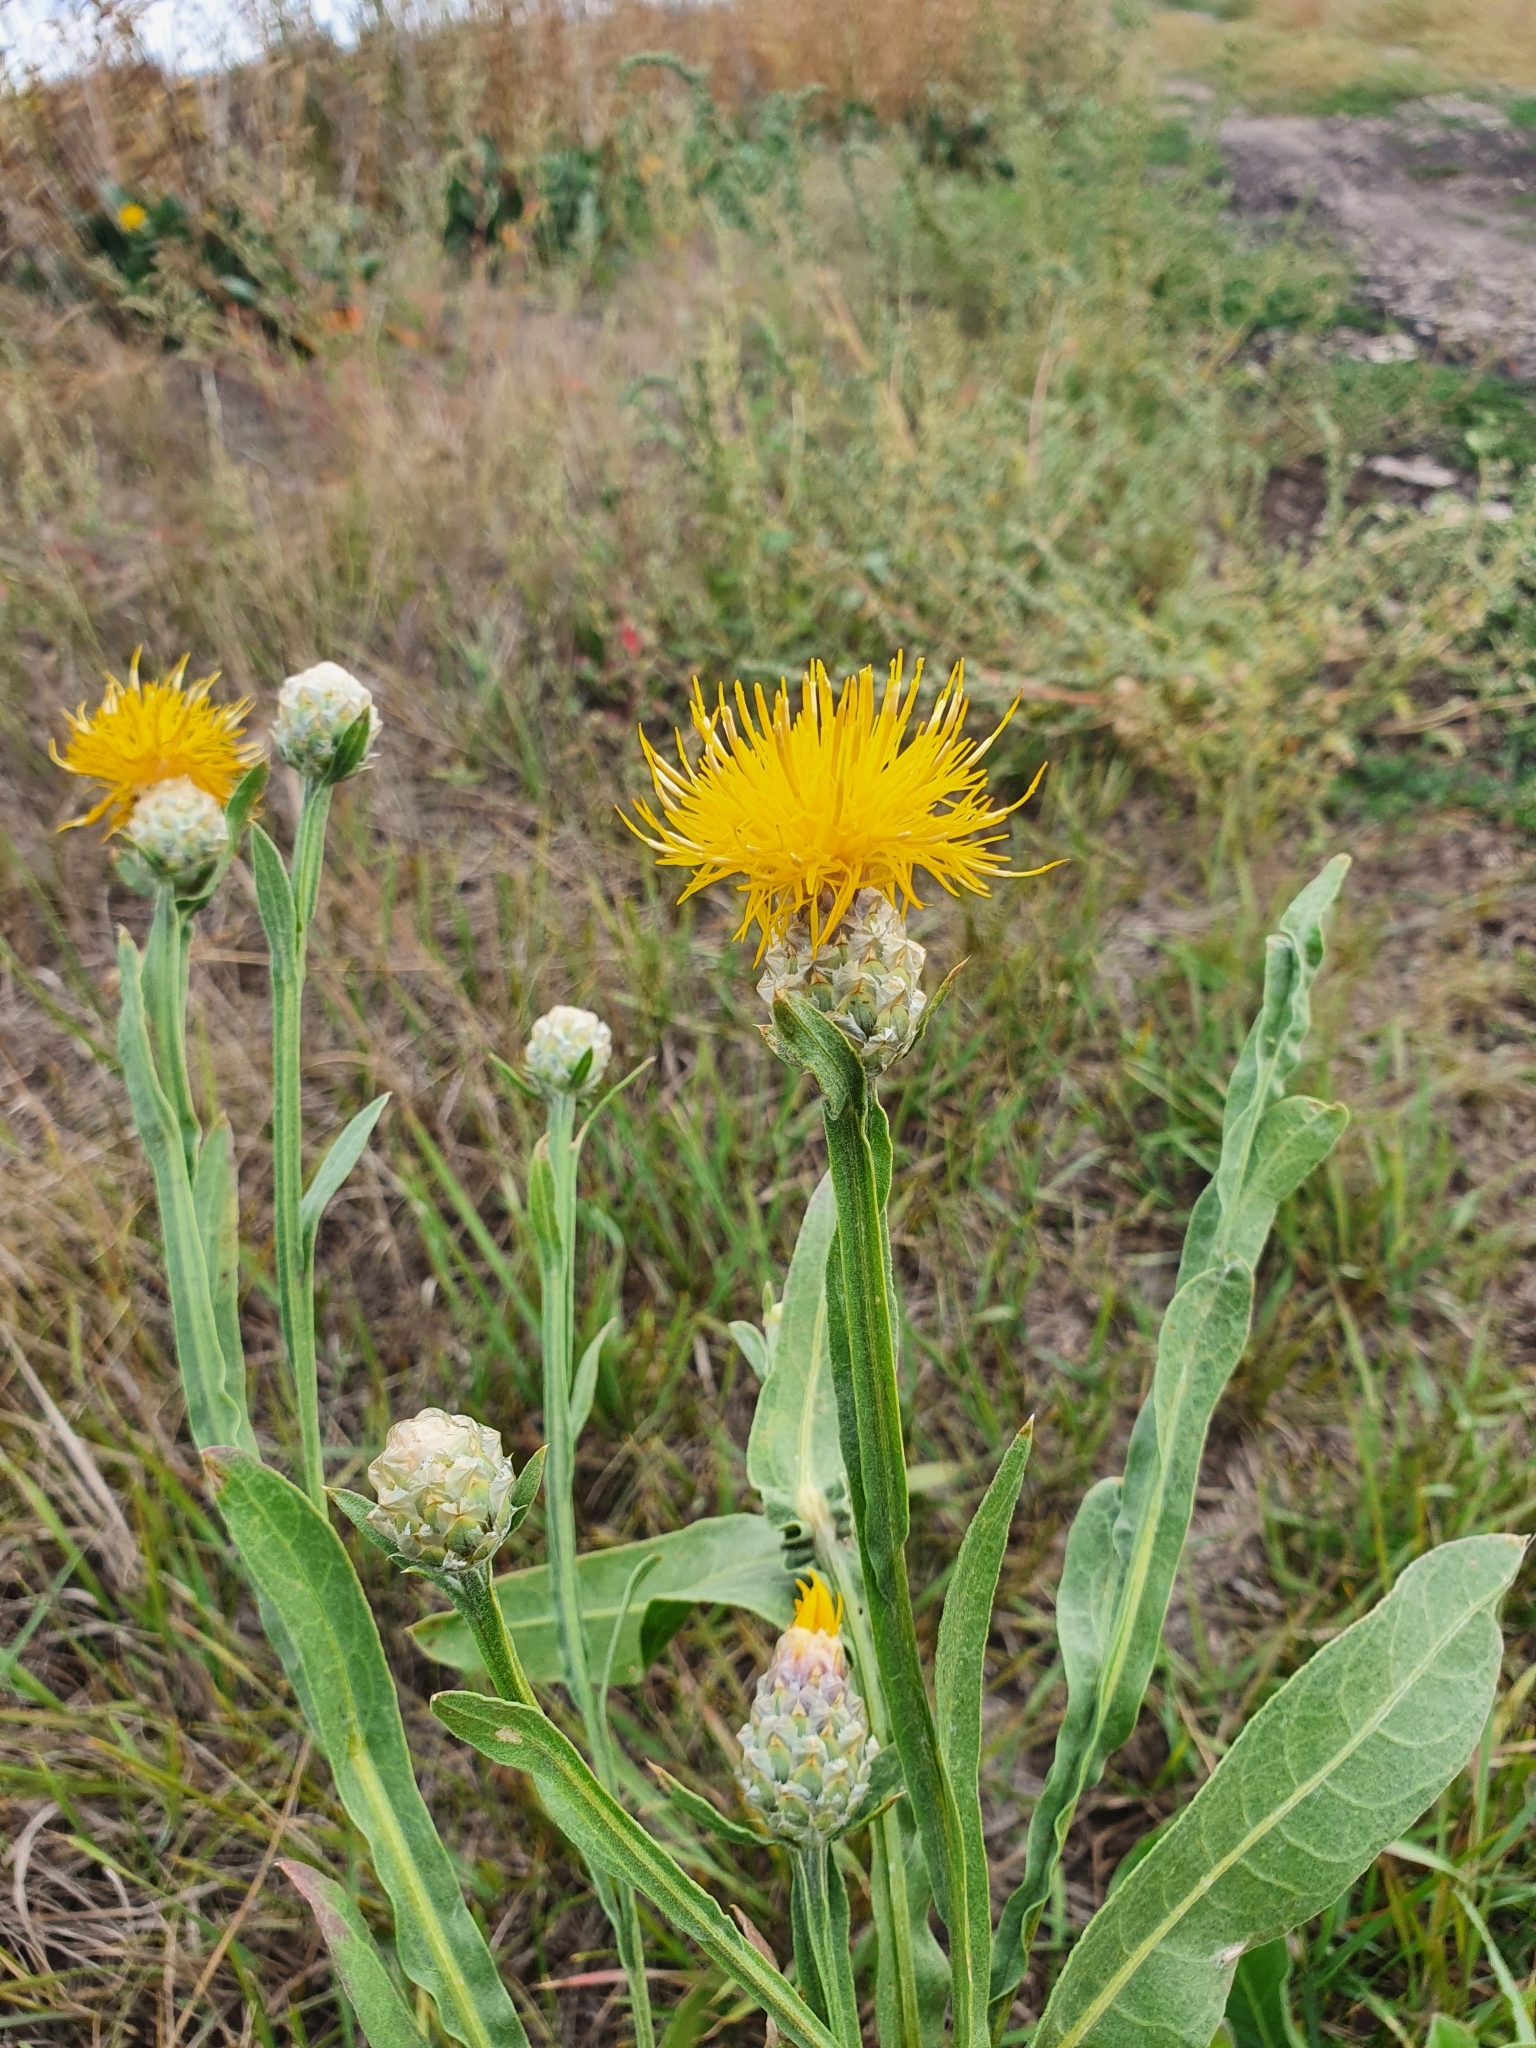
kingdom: Plantae
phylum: Tracheophyta
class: Magnoliopsida
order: Asterales
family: Asteraceae
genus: Centaurea
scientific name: Centaurea glastifolia
